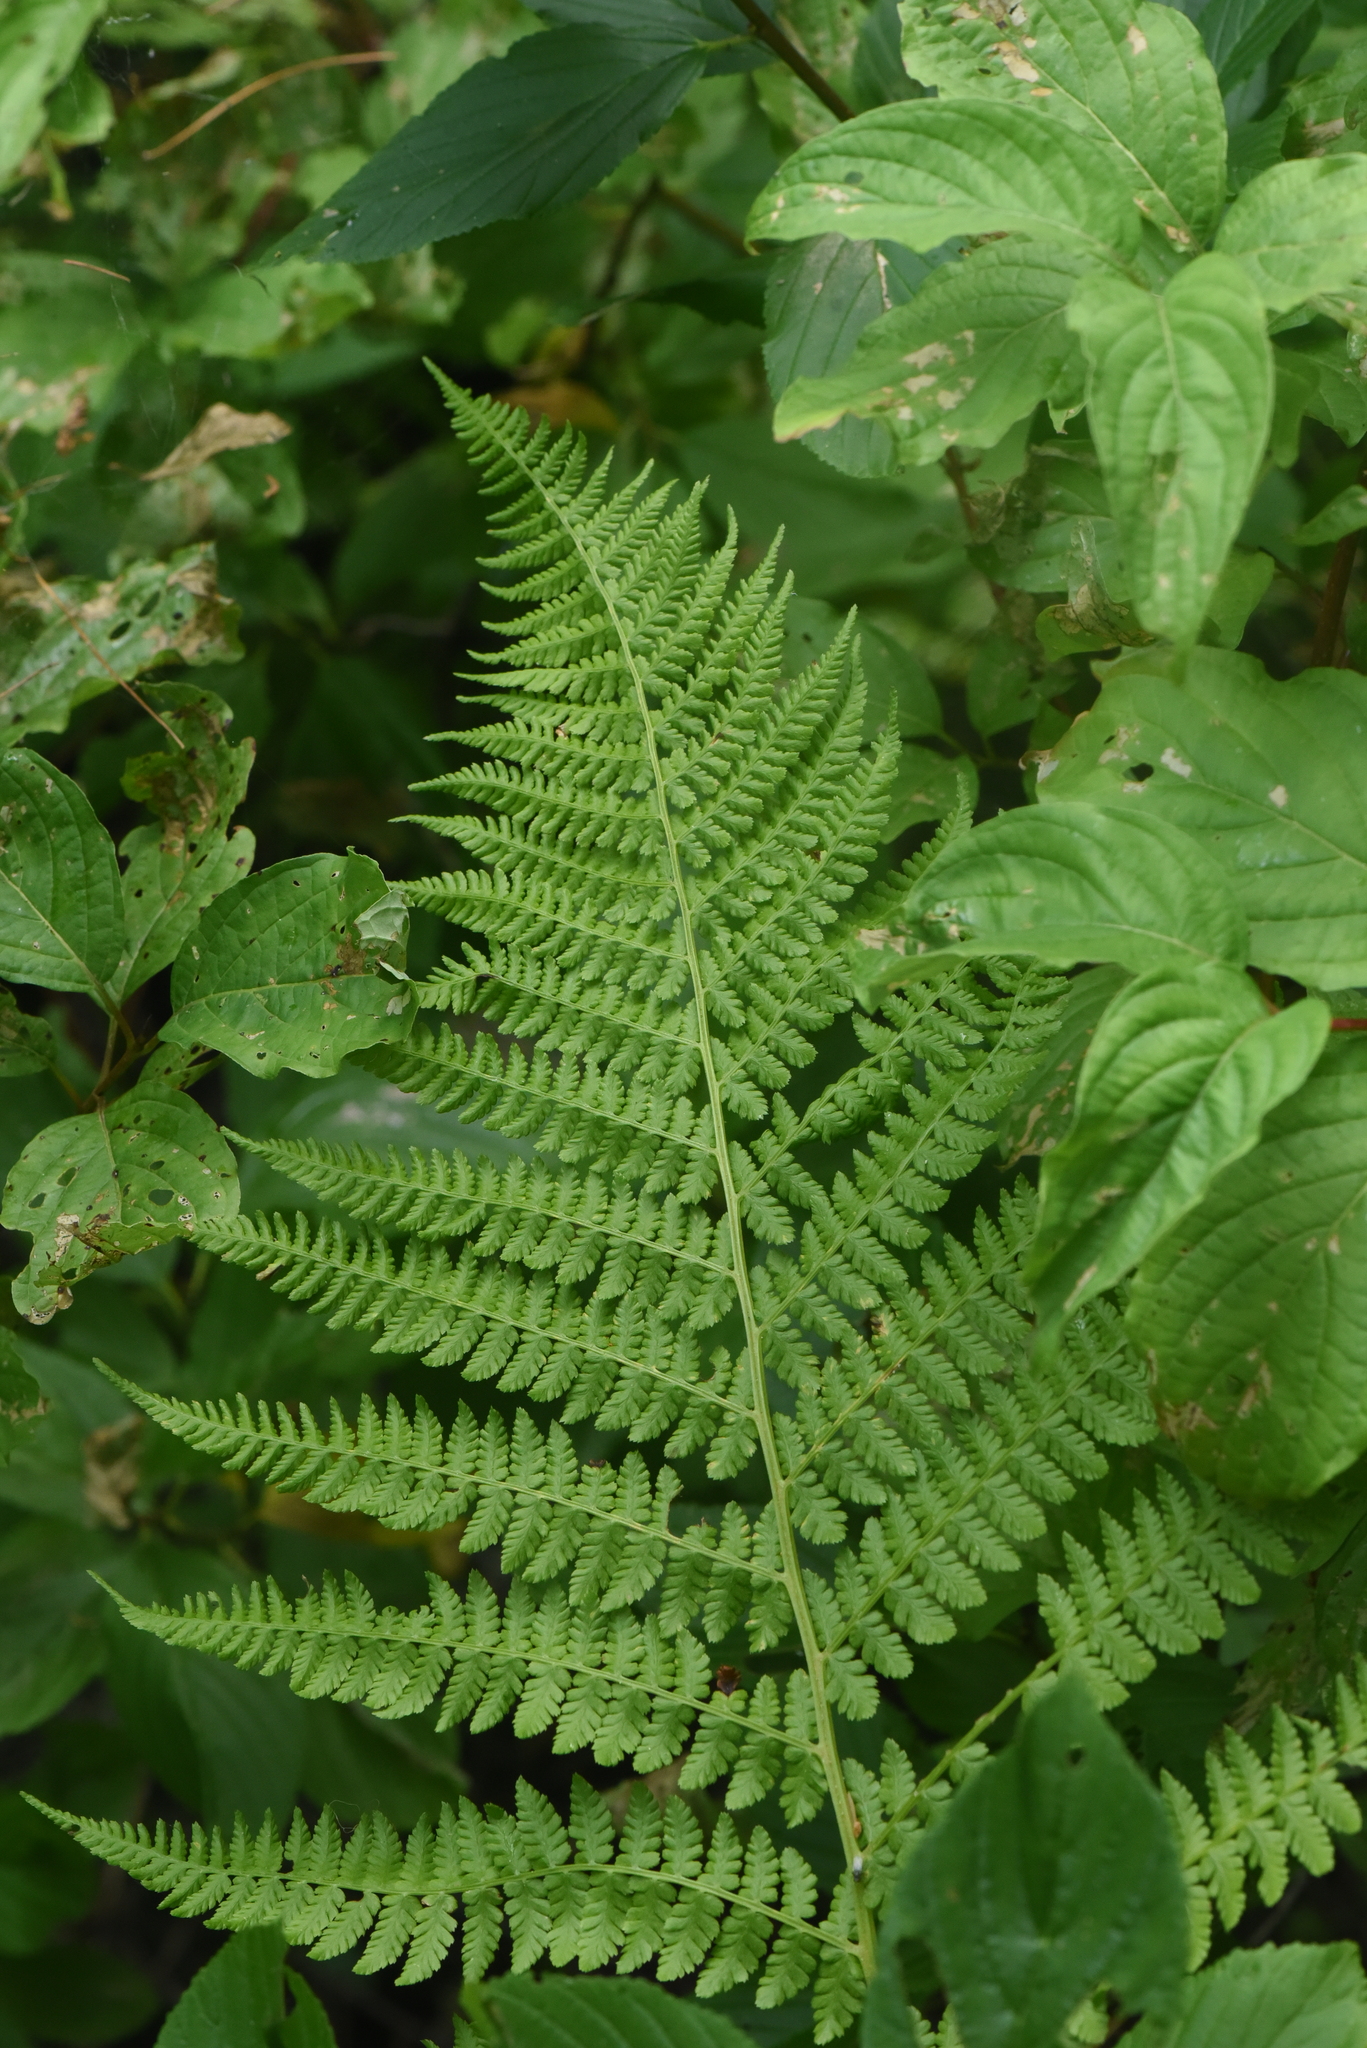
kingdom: Plantae
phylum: Tracheophyta
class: Polypodiopsida
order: Polypodiales
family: Athyriaceae
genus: Athyrium
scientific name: Athyrium filix-femina
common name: Lady fern
